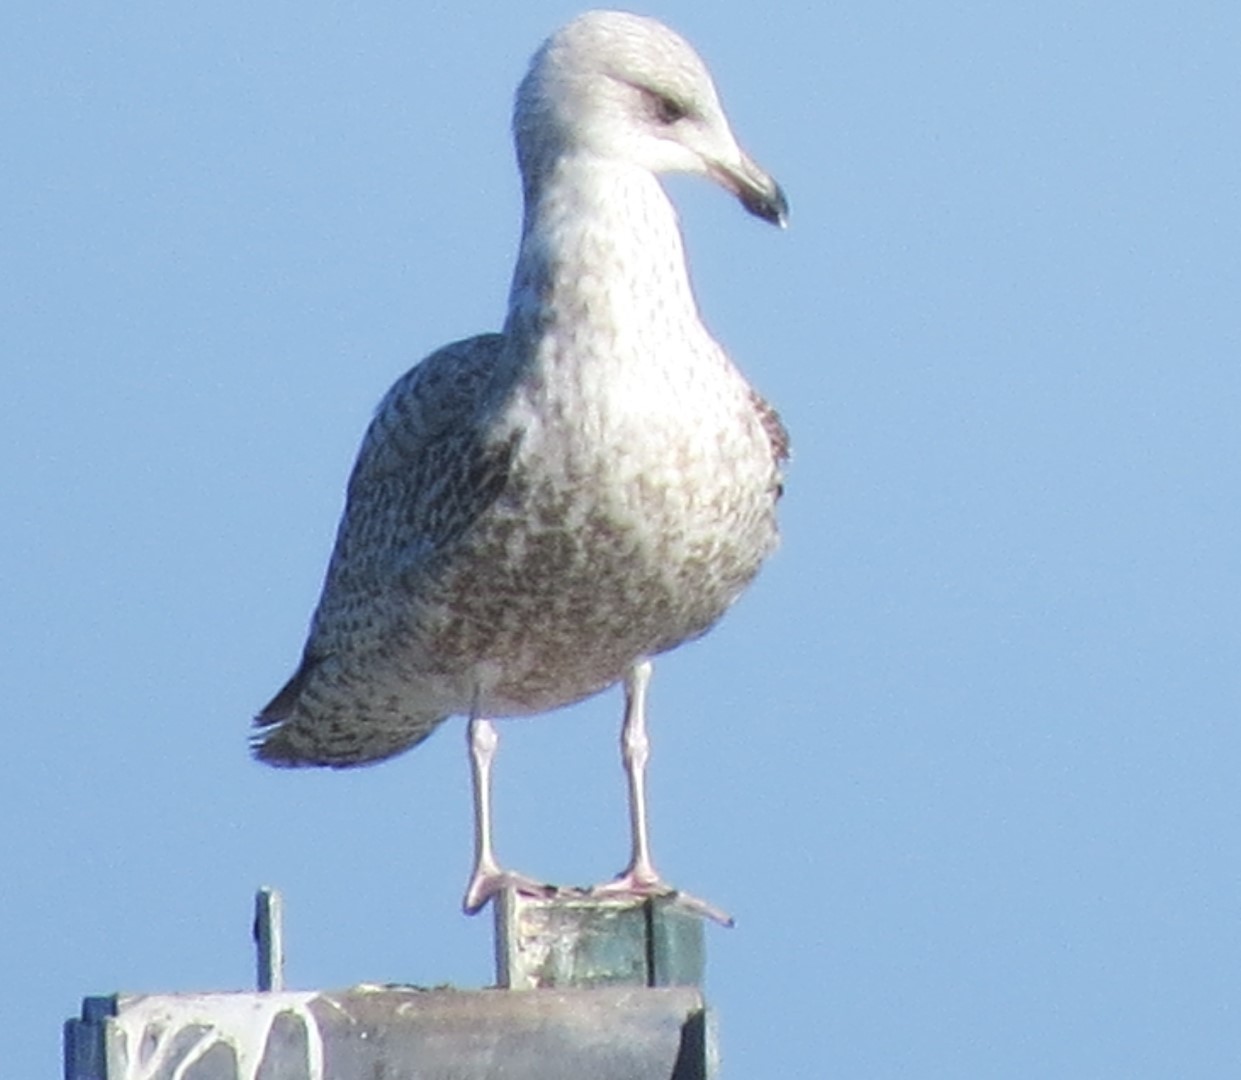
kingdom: Animalia
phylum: Chordata
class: Aves
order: Charadriiformes
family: Laridae
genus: Larus
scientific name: Larus argentatus
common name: Herring gull
